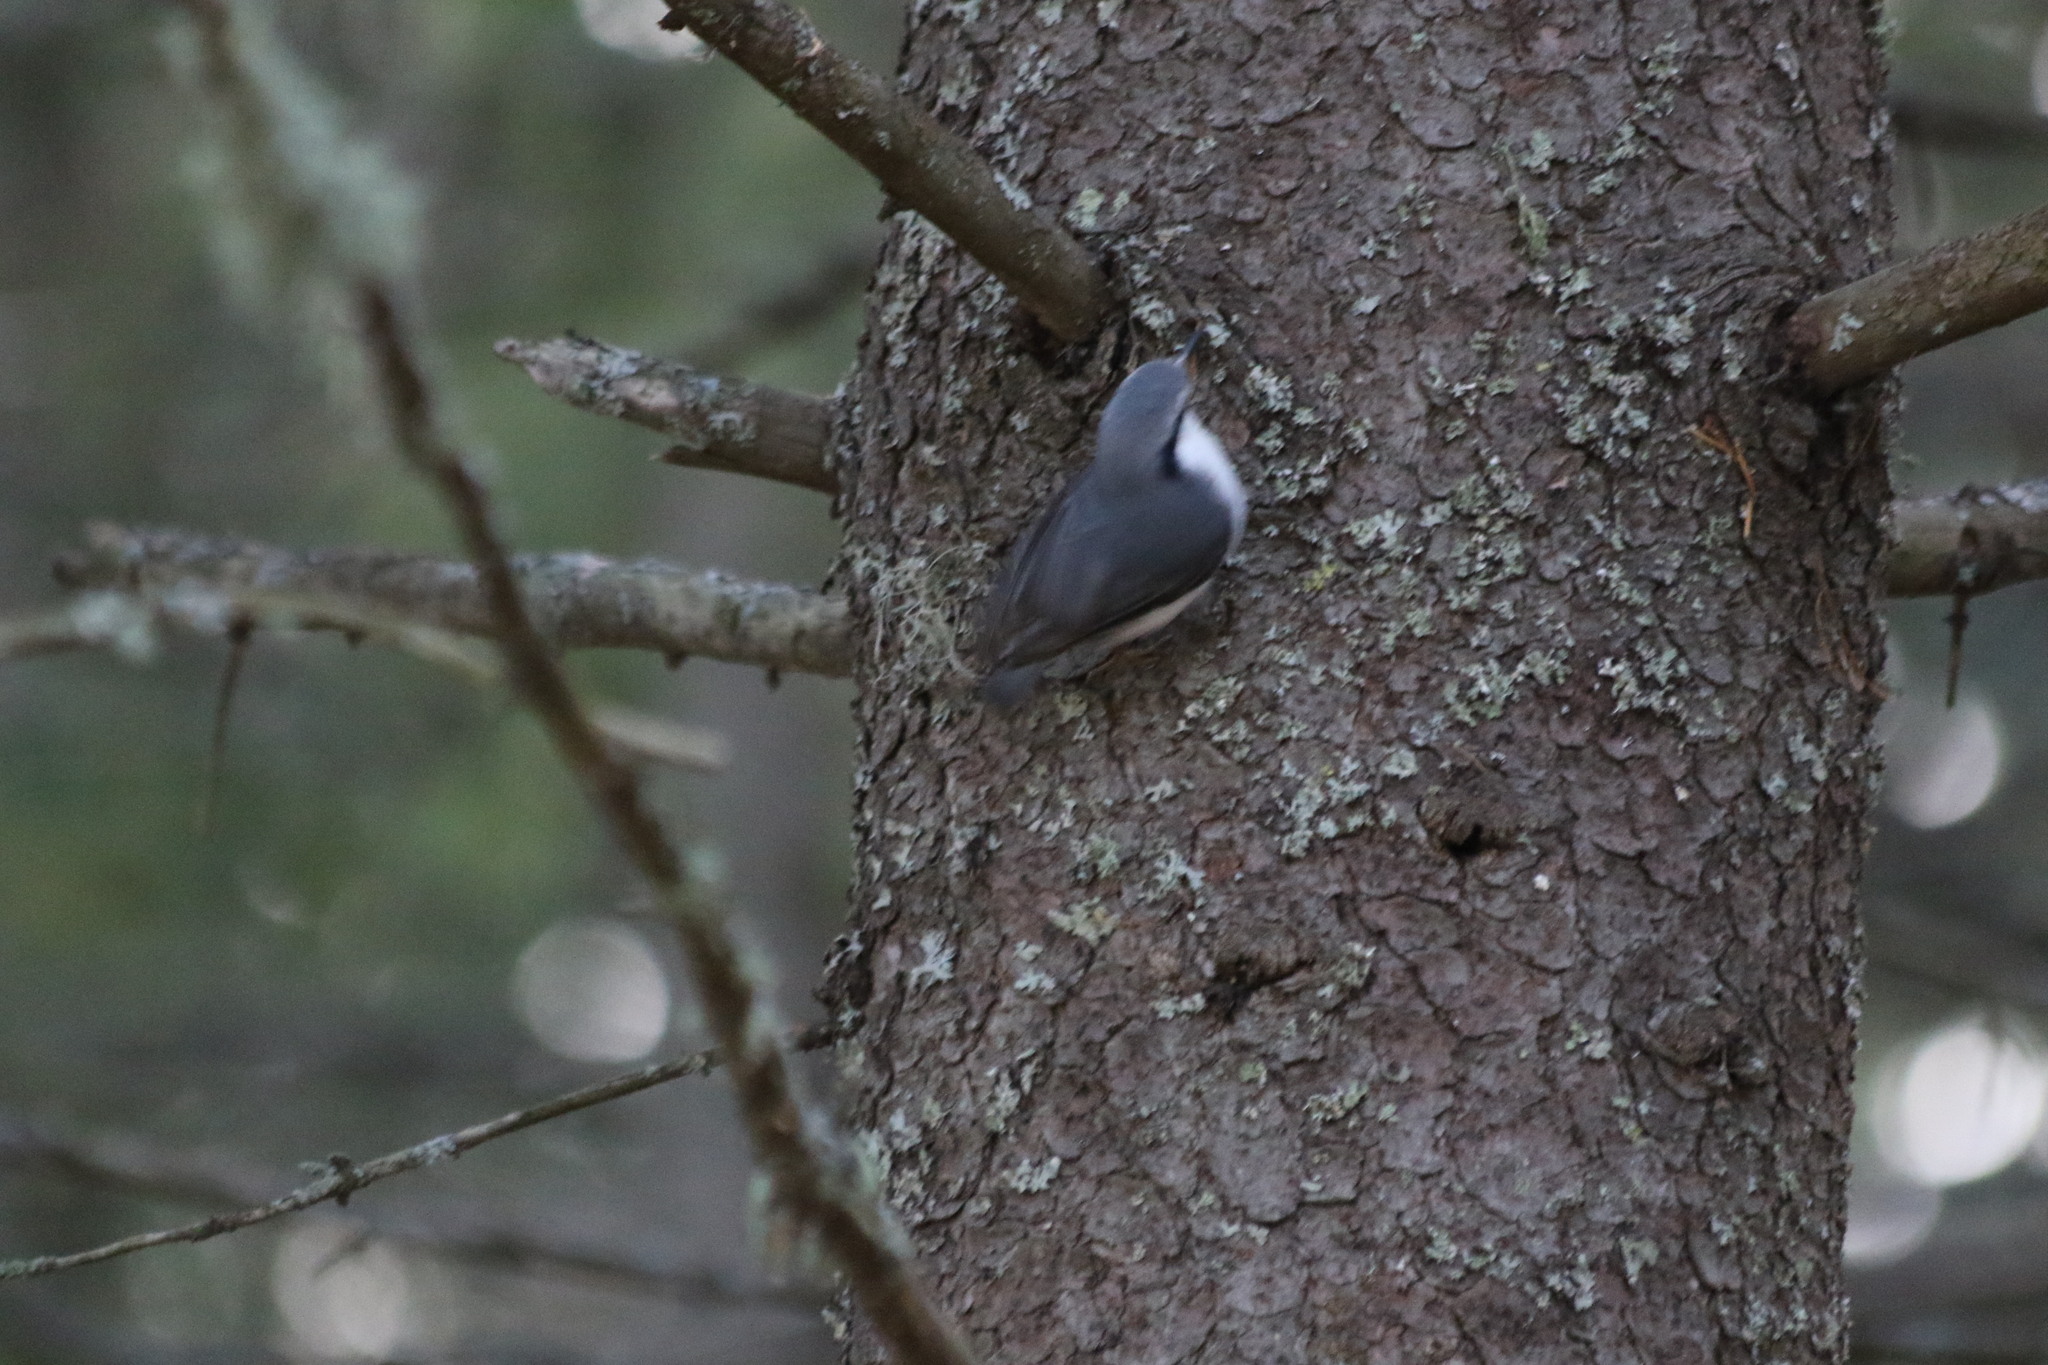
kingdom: Animalia
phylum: Chordata
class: Aves
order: Passeriformes
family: Sittidae
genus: Sitta
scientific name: Sitta europaea
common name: Eurasian nuthatch
